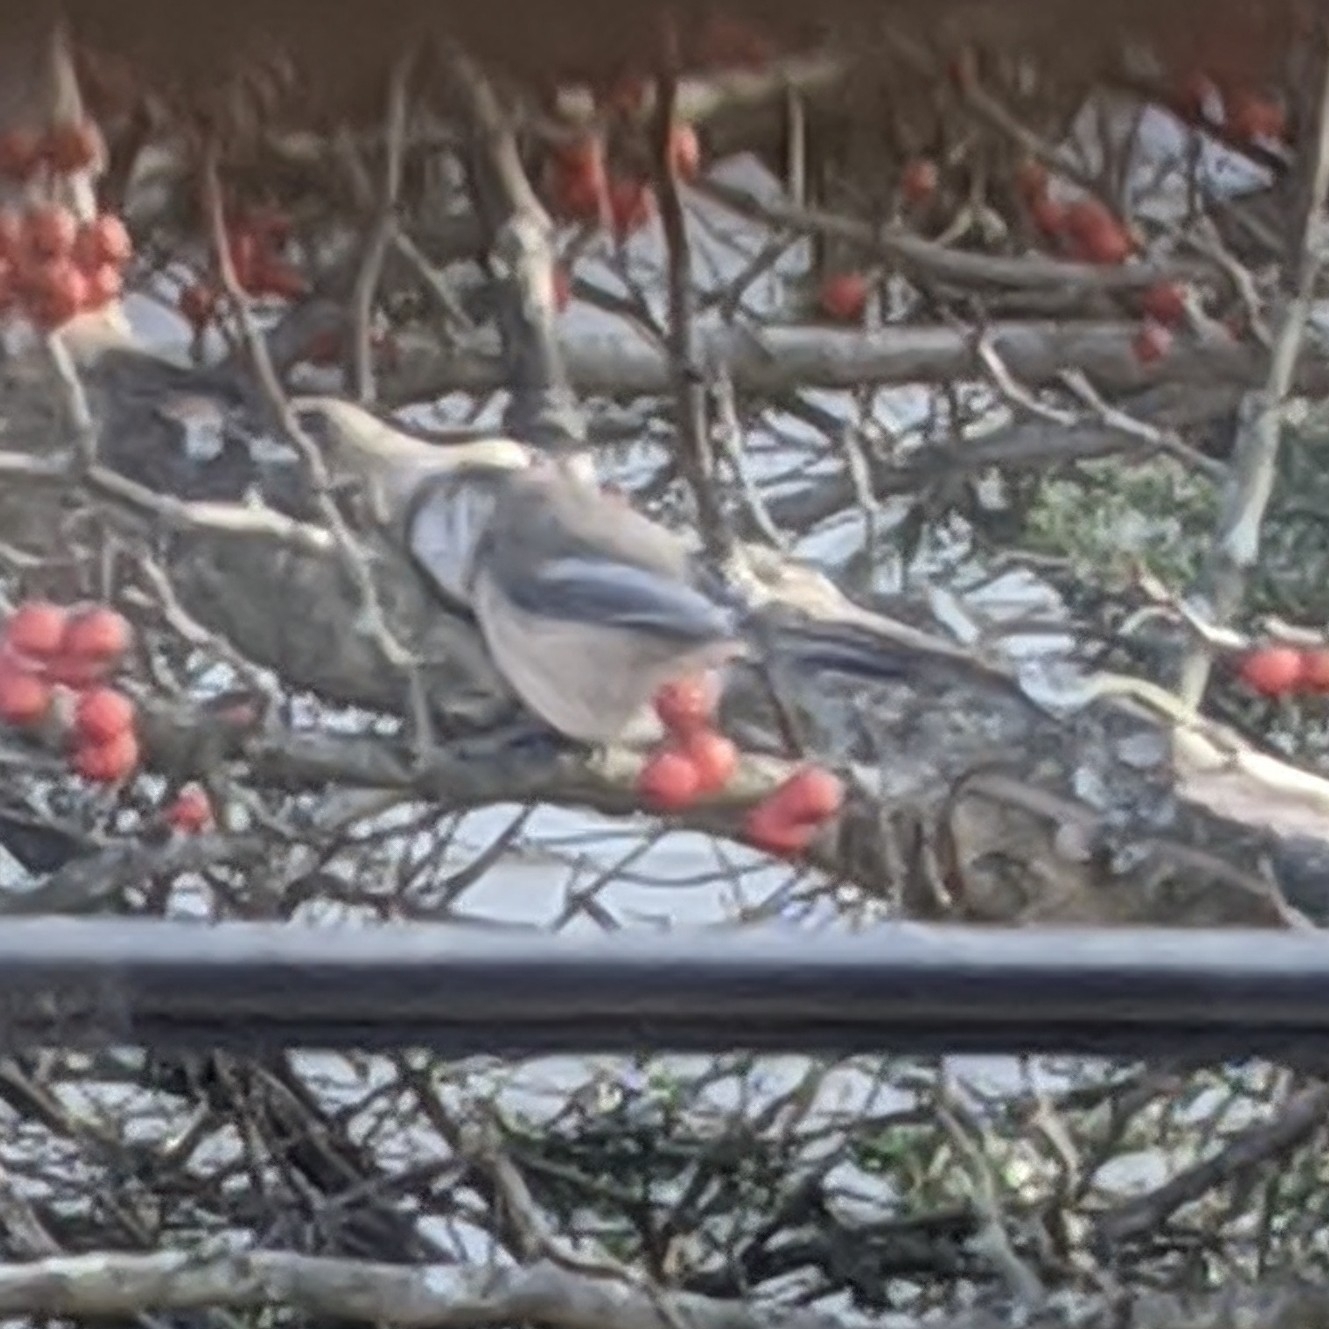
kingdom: Animalia
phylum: Chordata
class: Aves
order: Passeriformes
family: Paridae
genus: Poecile
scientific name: Poecile atricapillus
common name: Black-capped chickadee
